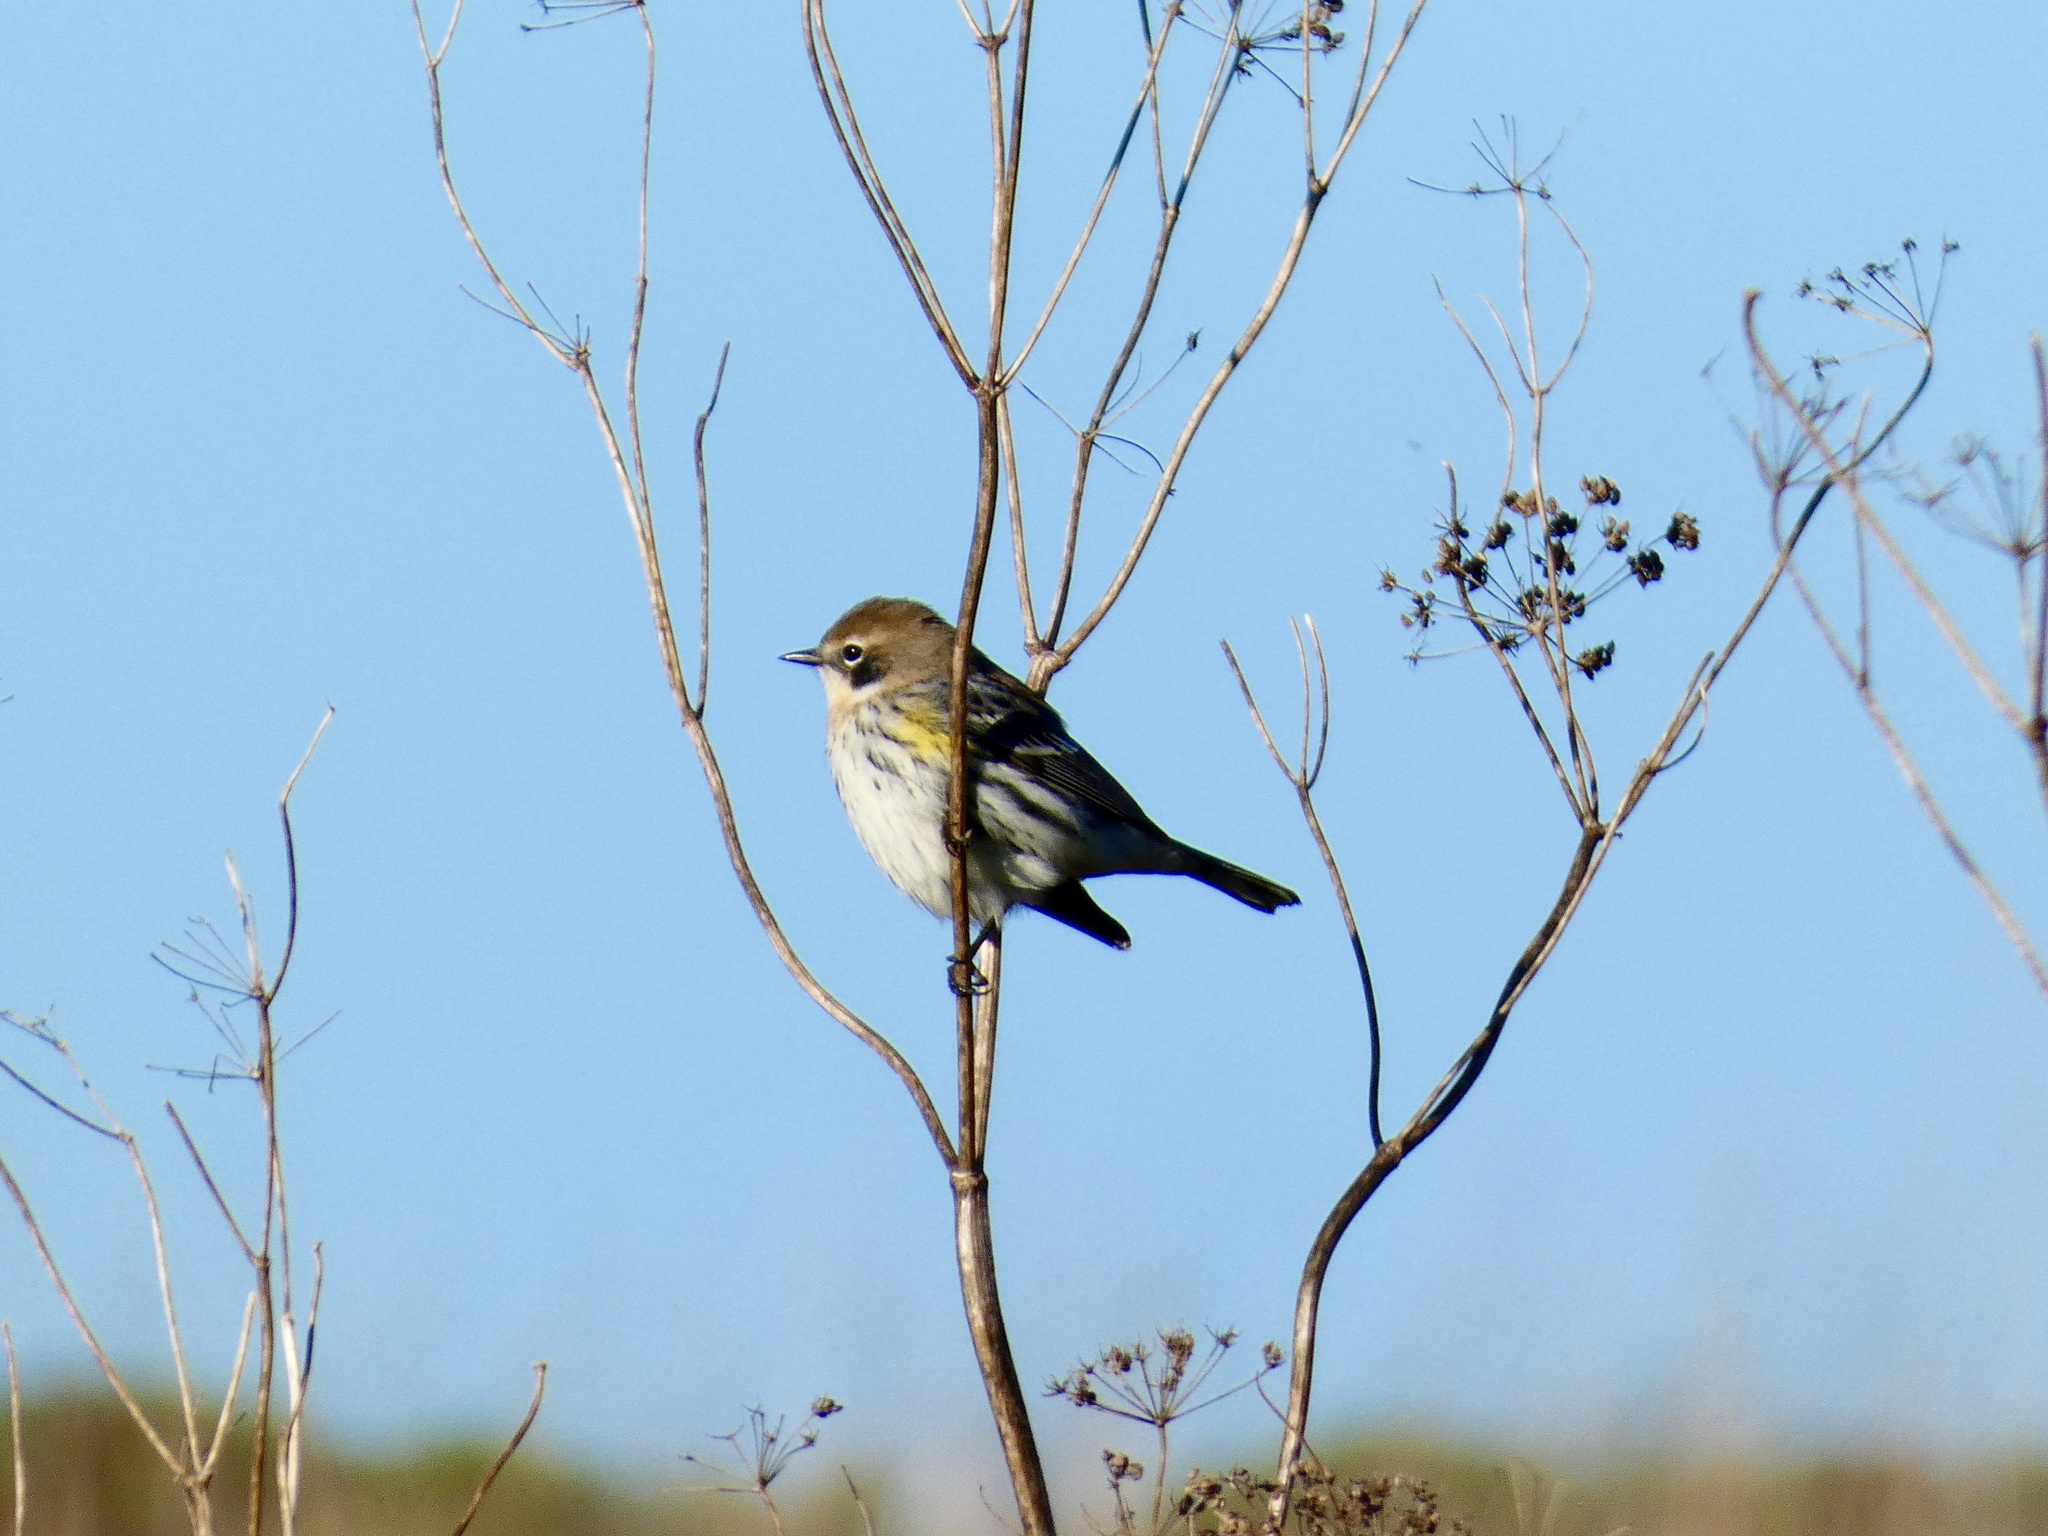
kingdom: Animalia
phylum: Chordata
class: Aves
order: Passeriformes
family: Parulidae
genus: Setophaga
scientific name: Setophaga coronata
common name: Myrtle warbler
